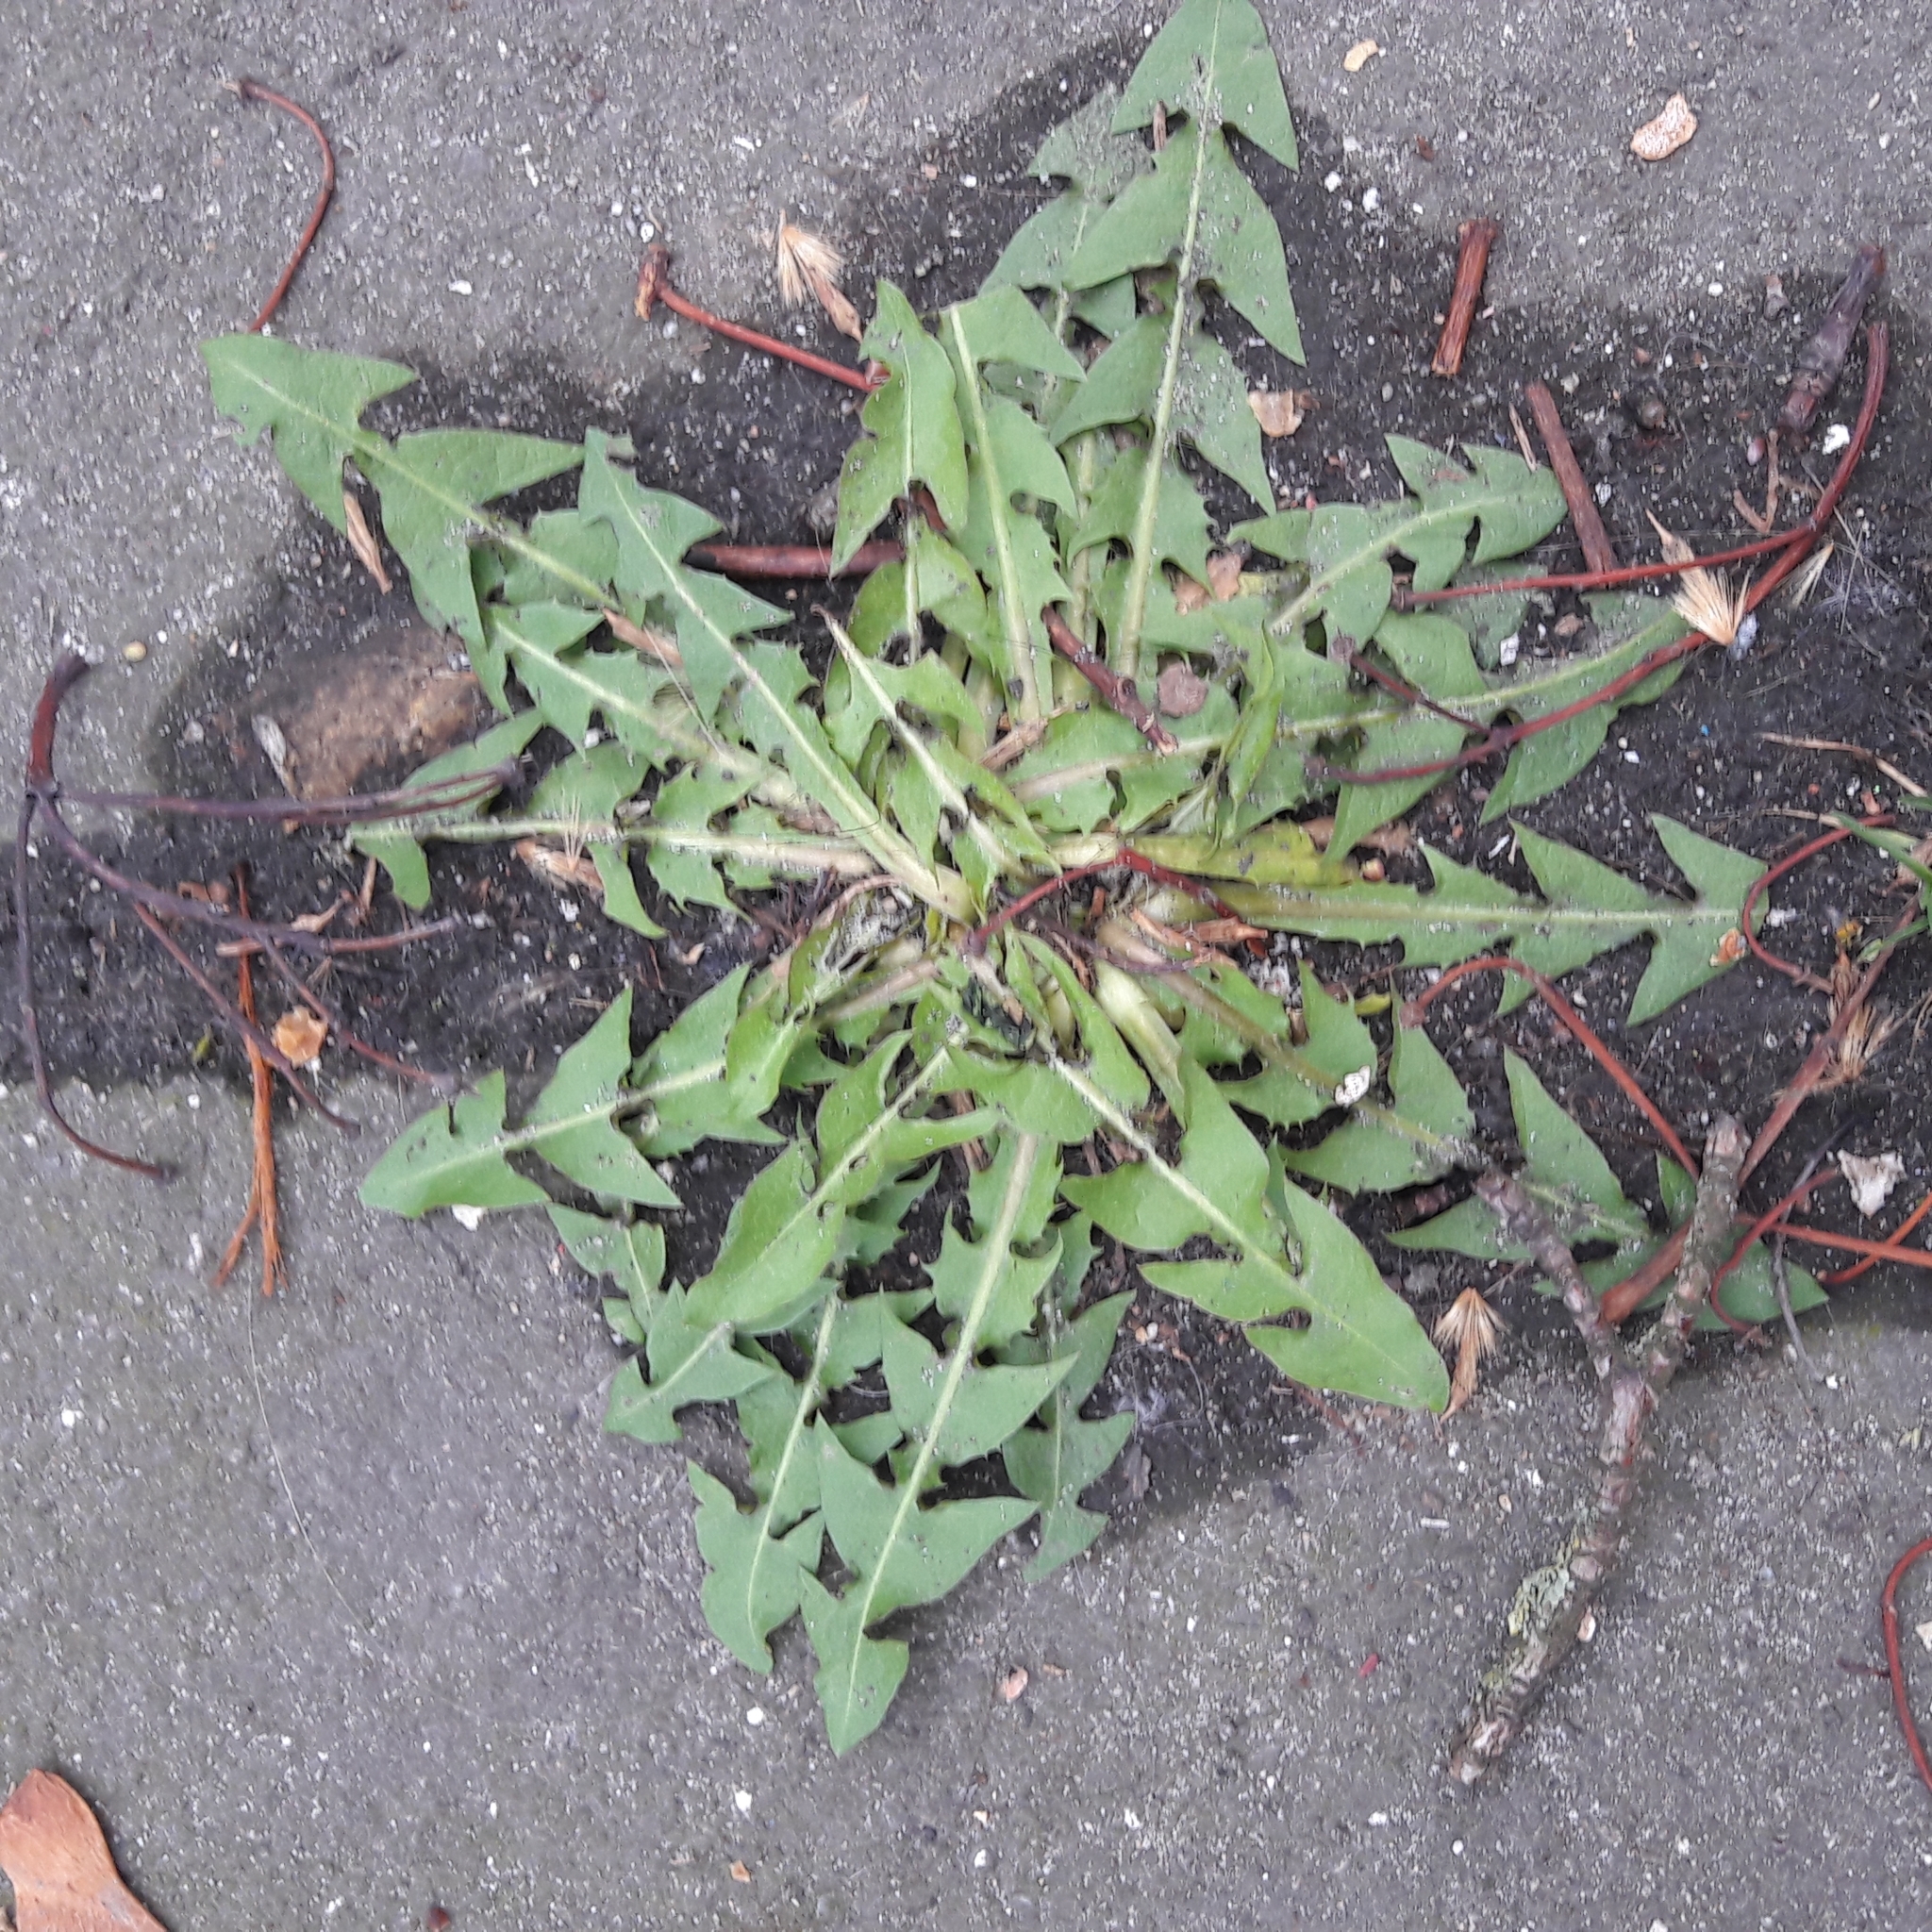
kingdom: Plantae
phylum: Tracheophyta
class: Magnoliopsida
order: Asterales
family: Asteraceae
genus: Taraxacum
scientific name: Taraxacum officinale
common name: Common dandelion
